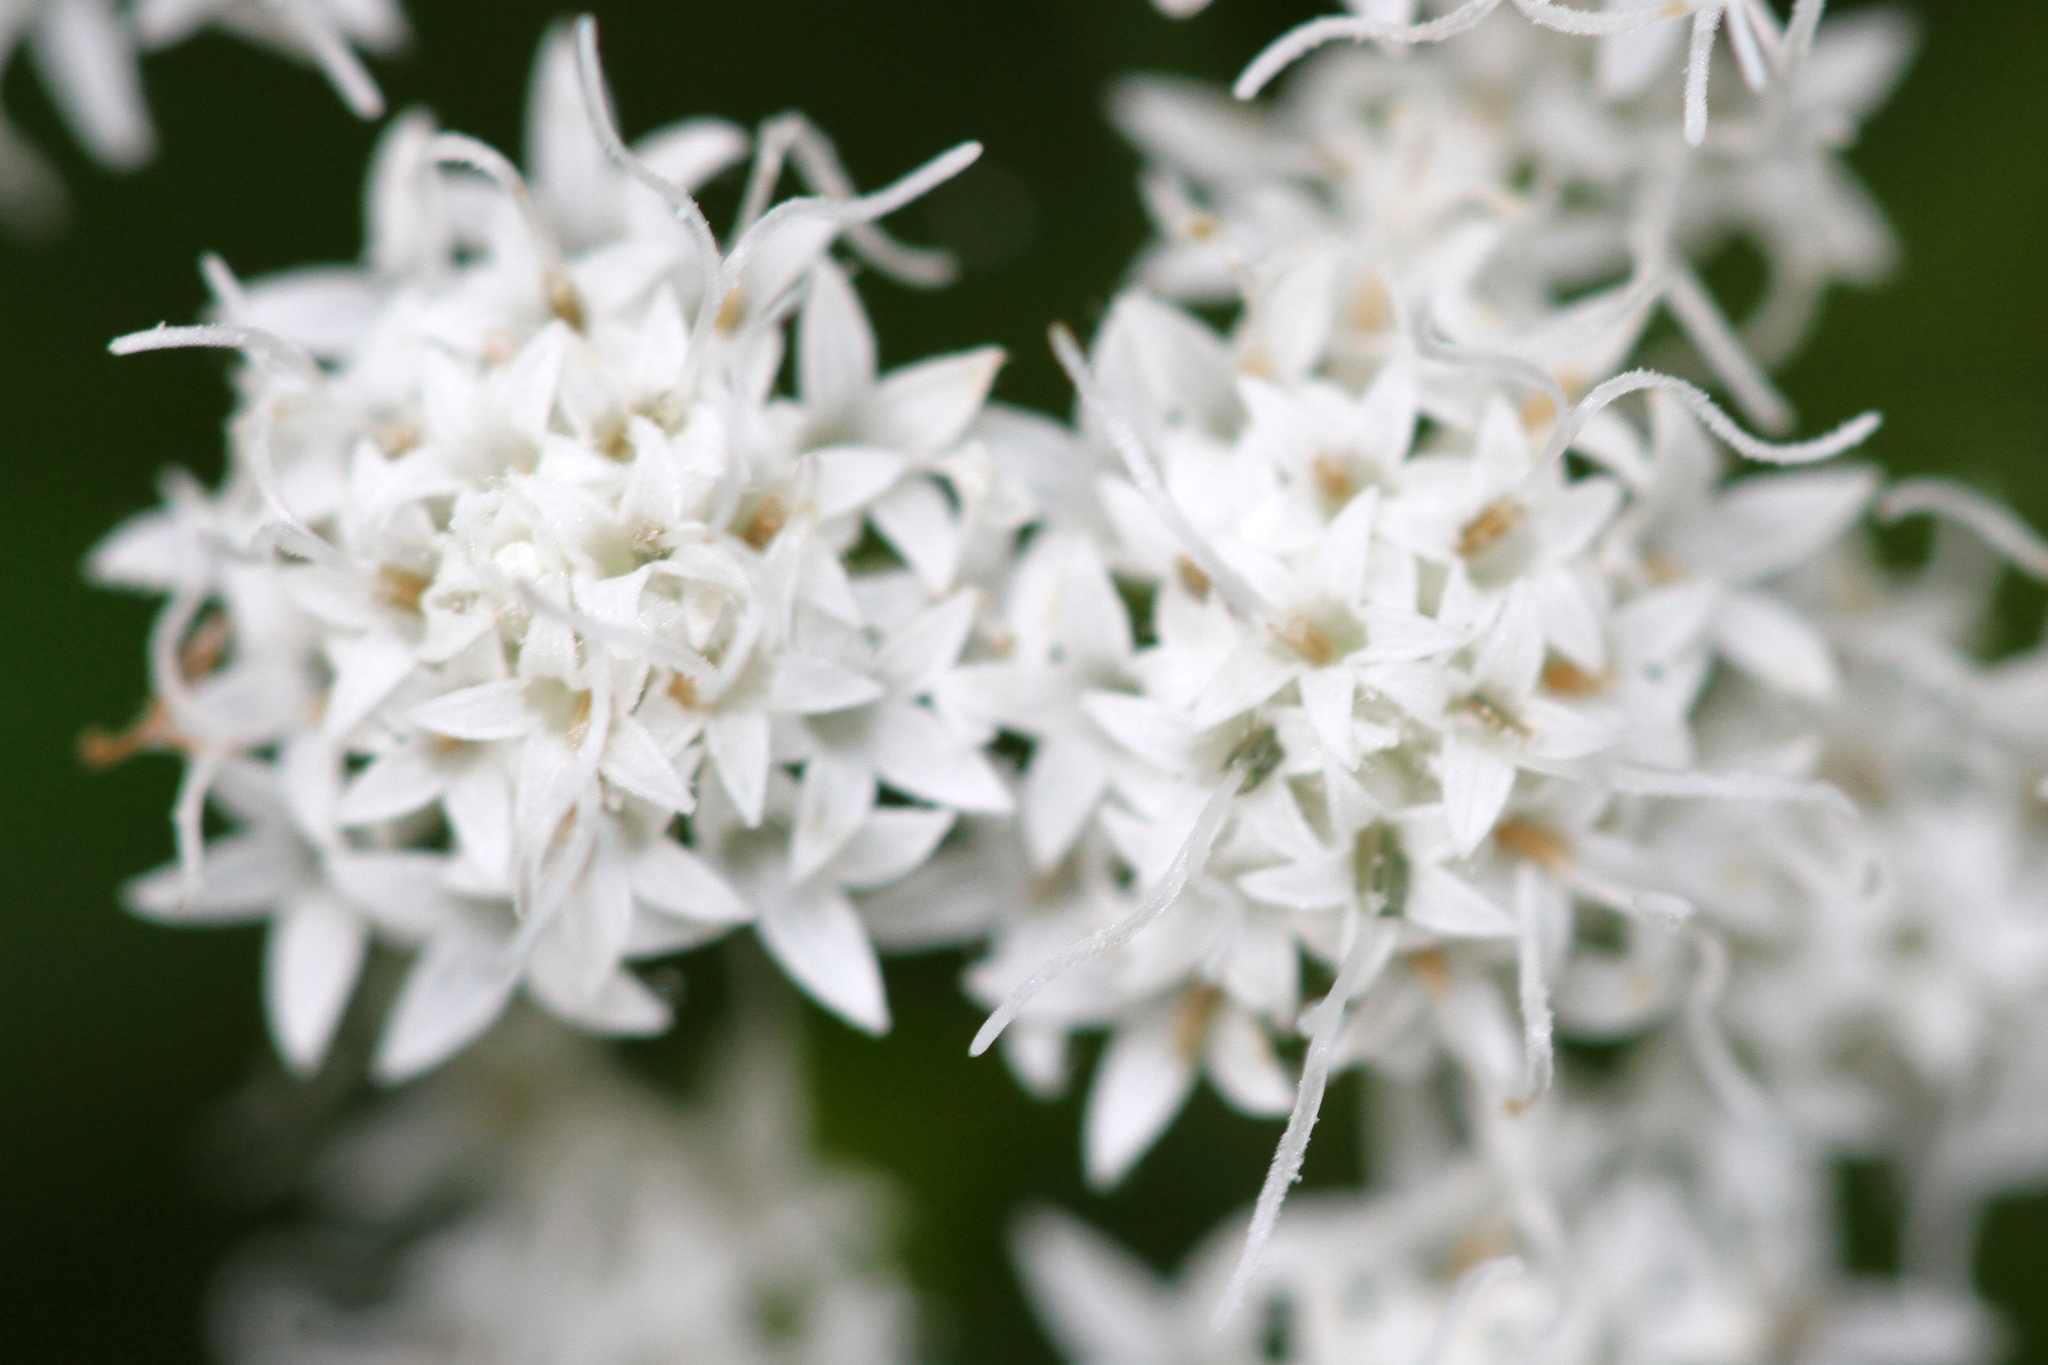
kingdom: Plantae
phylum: Tracheophyta
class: Magnoliopsida
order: Asterales
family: Asteraceae
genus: Ageratina
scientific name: Ageratina altissima
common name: White snakeroot
